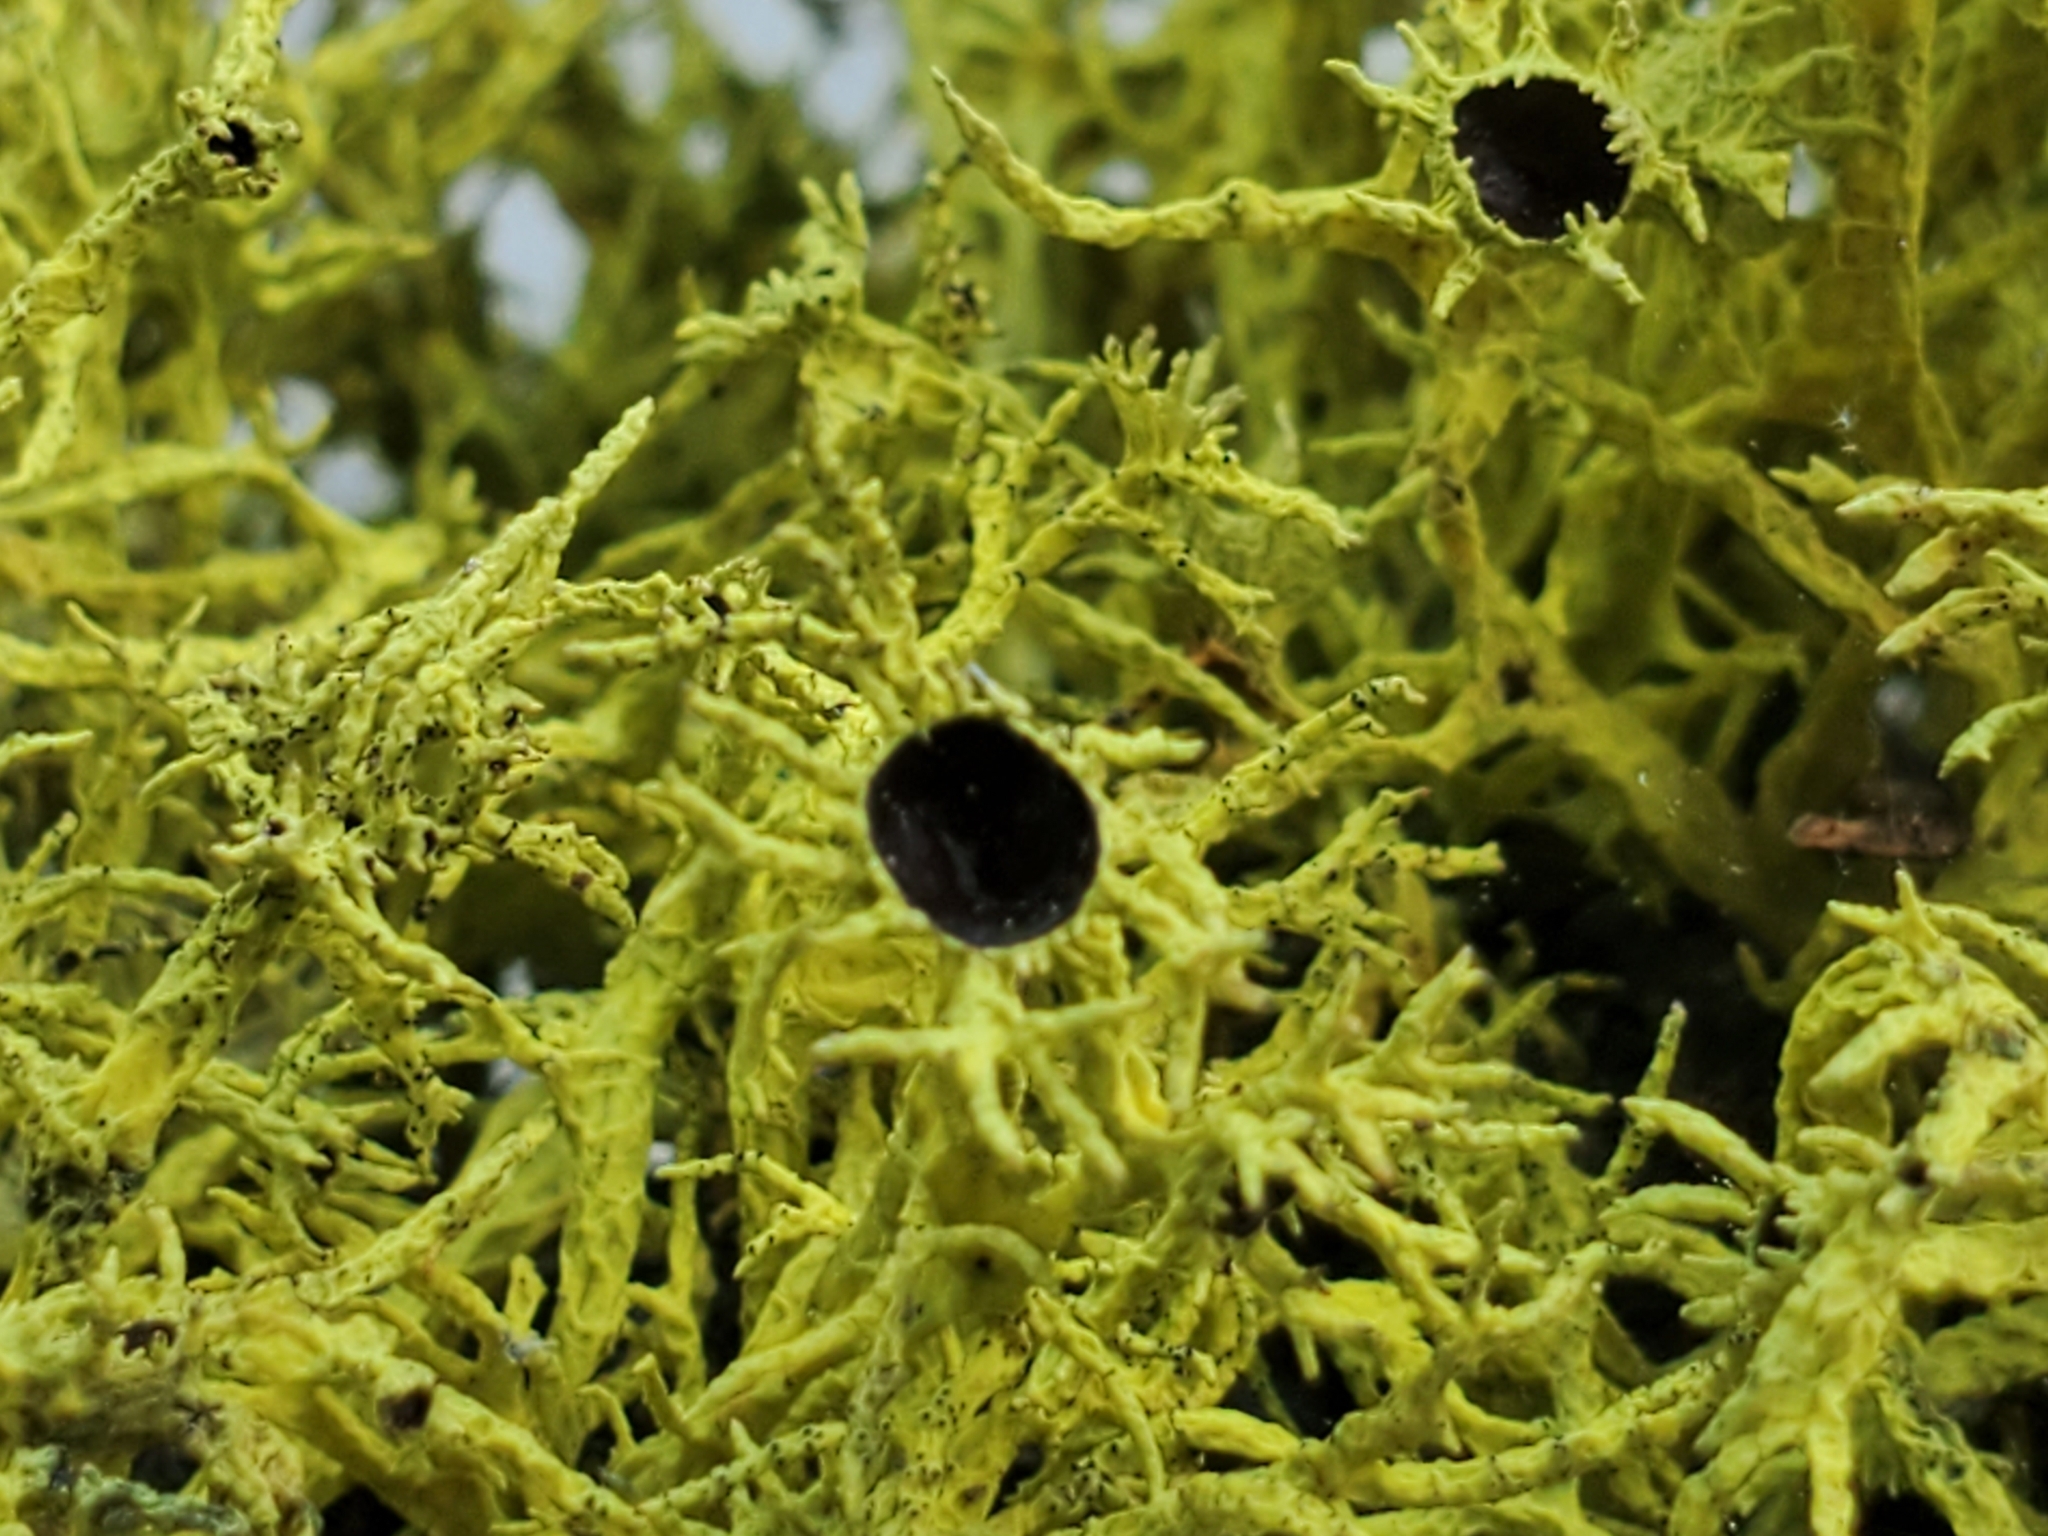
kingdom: Fungi
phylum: Ascomycota
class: Lecanoromycetes
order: Lecanorales
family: Parmeliaceae
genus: Letharia
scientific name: Letharia columbiana
